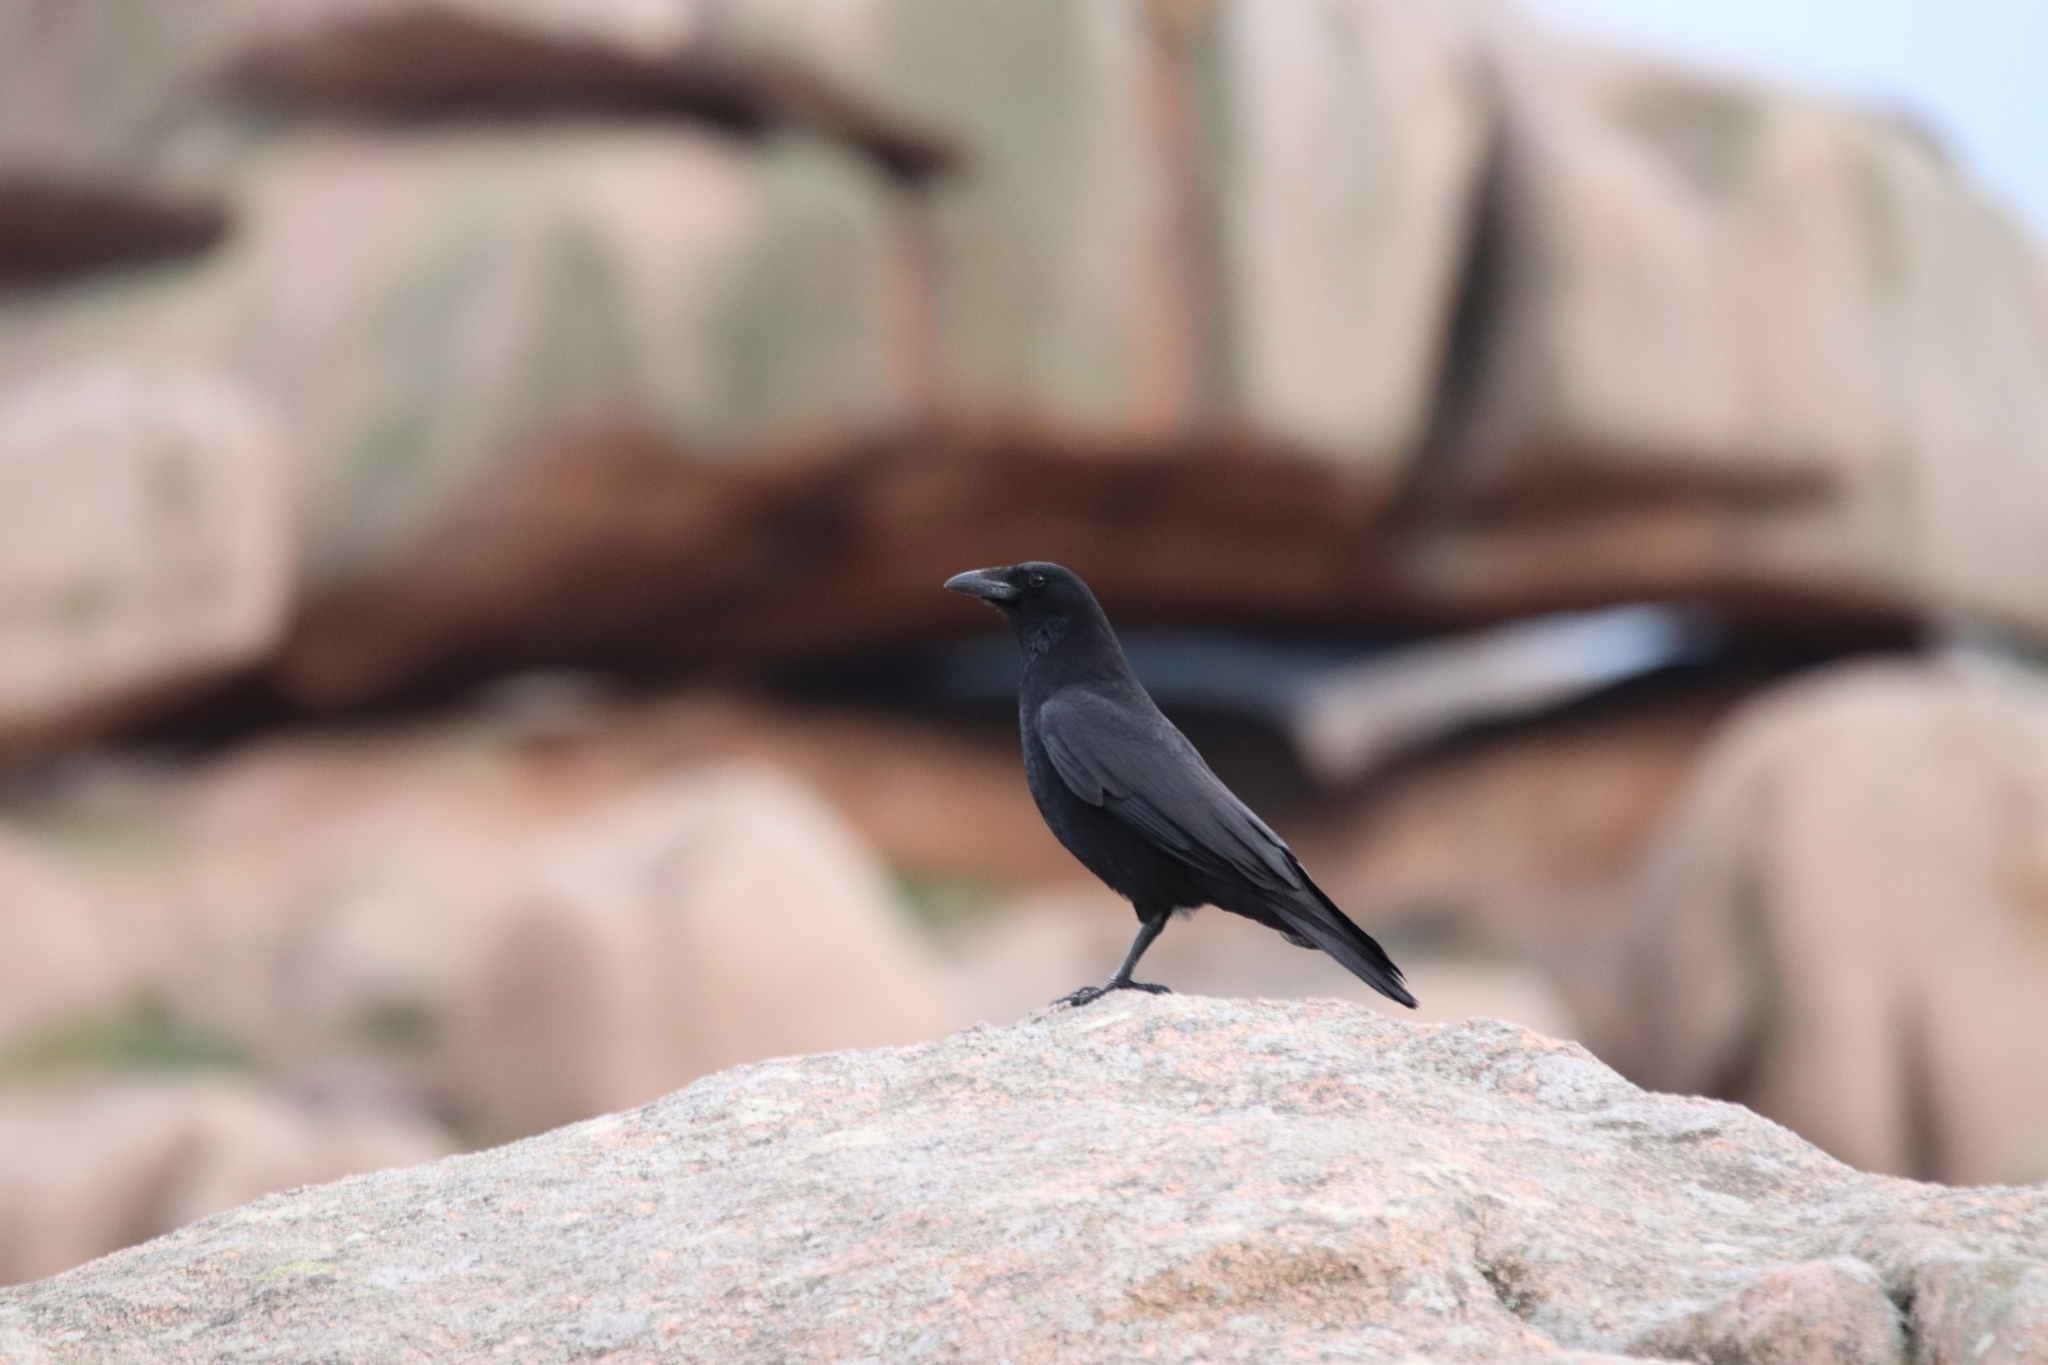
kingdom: Animalia
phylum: Chordata
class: Aves
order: Passeriformes
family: Corvidae
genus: Corvus
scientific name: Corvus corone
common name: Carrion crow
